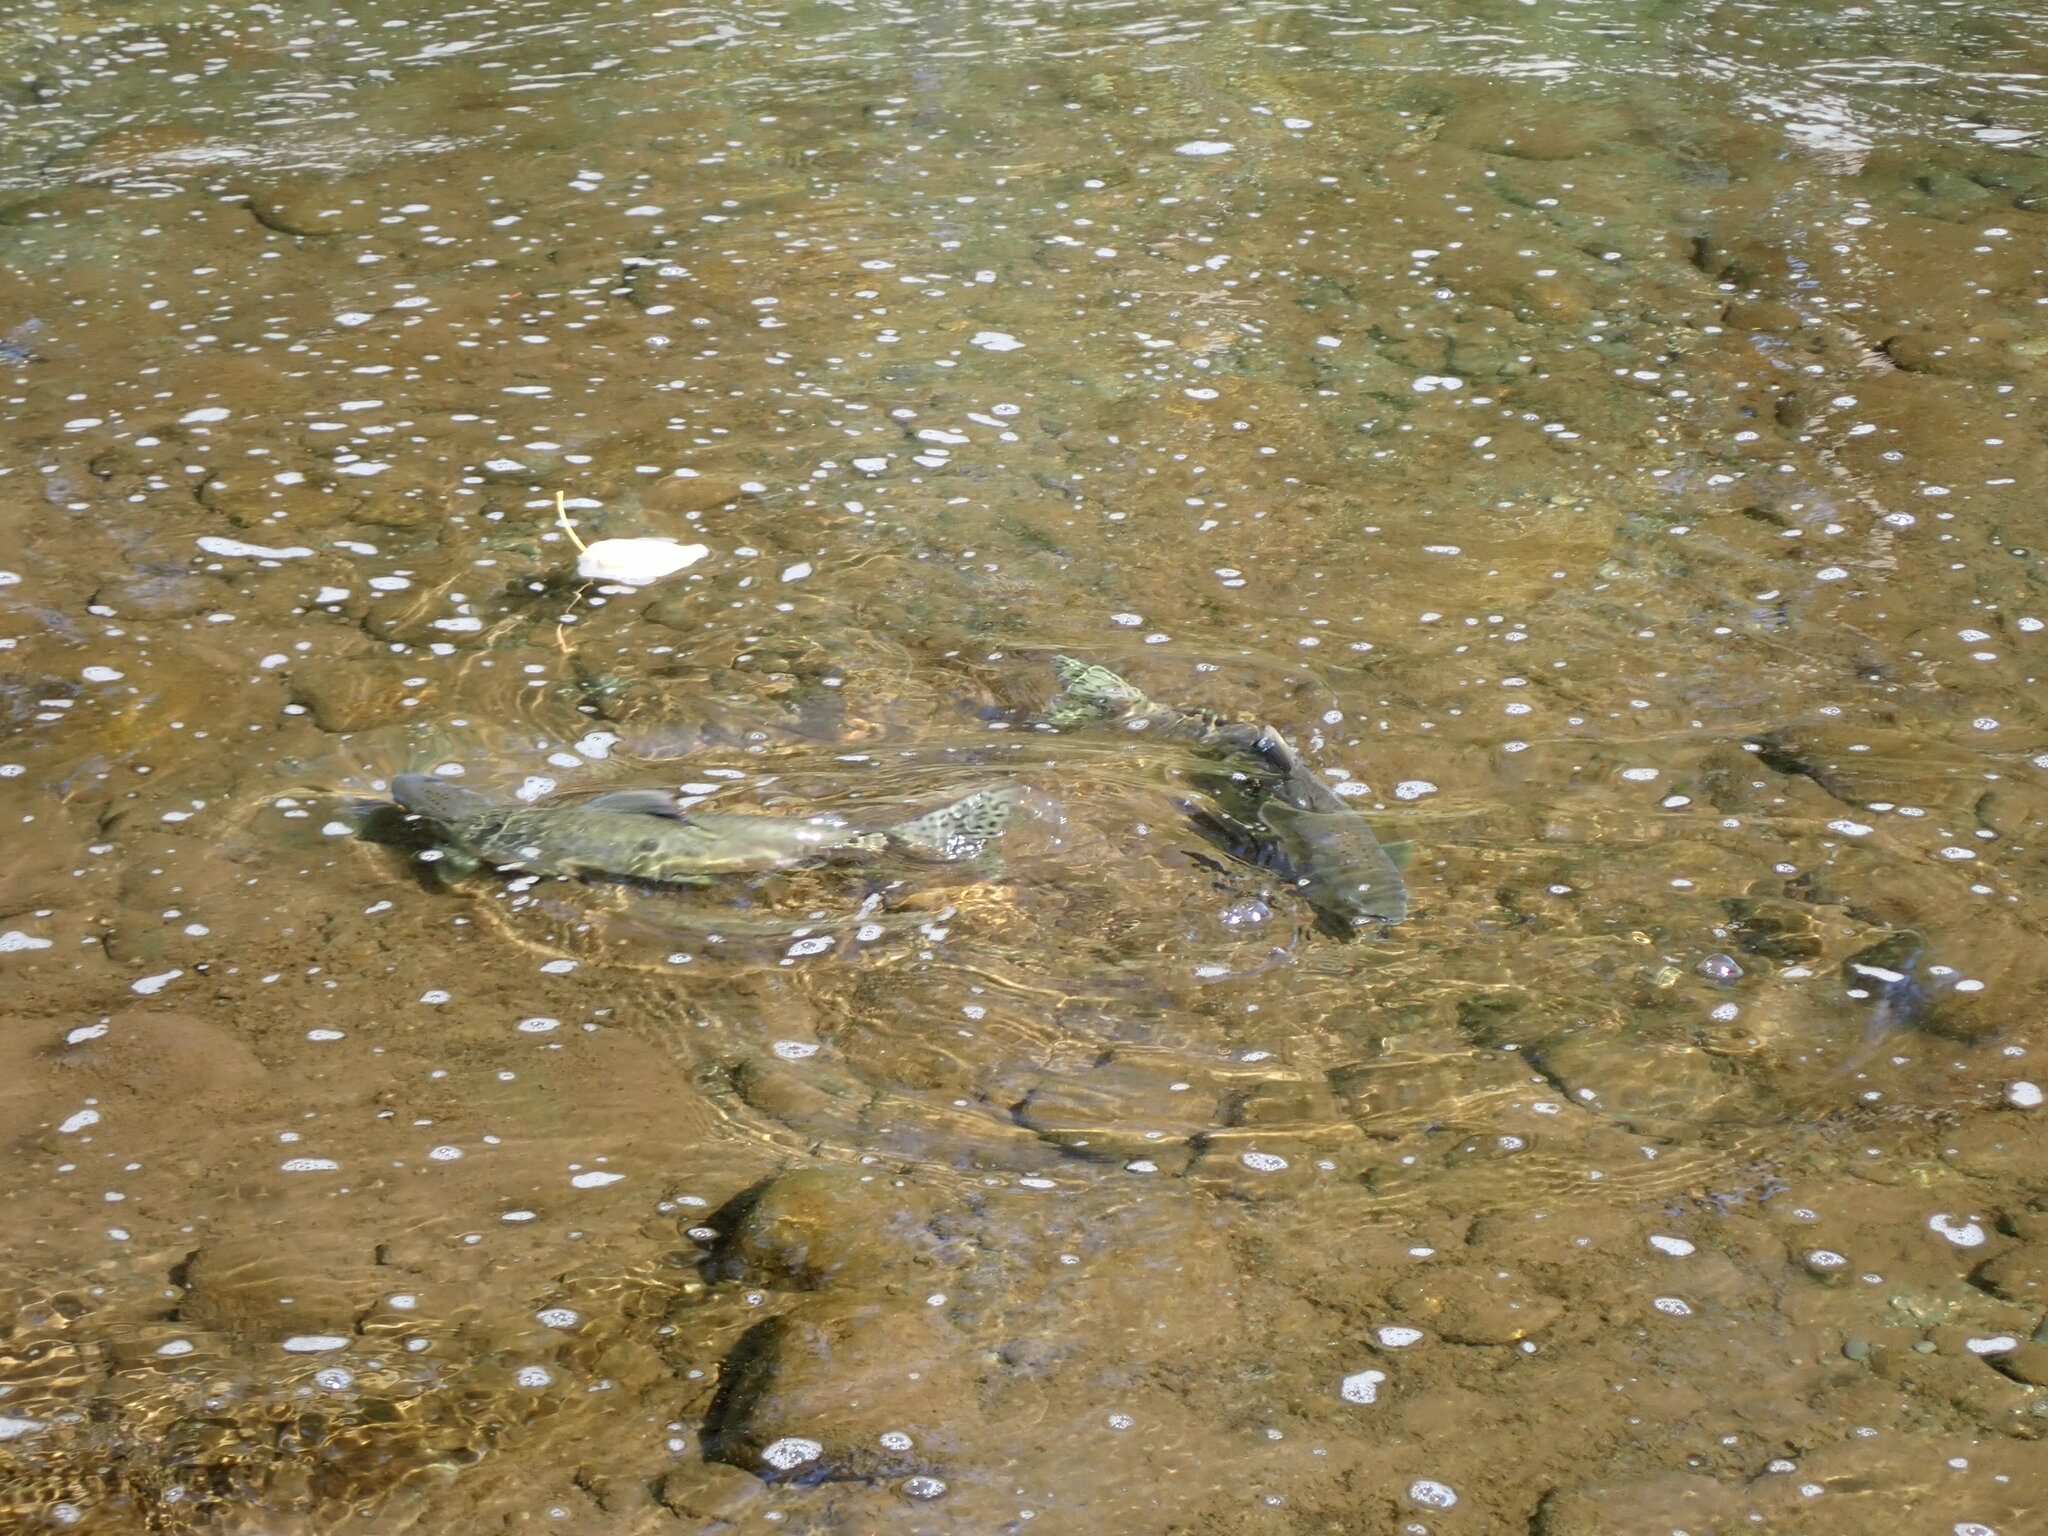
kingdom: Animalia
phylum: Chordata
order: Salmoniformes
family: Salmonidae
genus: Oncorhynchus
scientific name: Oncorhynchus gorbuscha
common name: Humpback salmon
